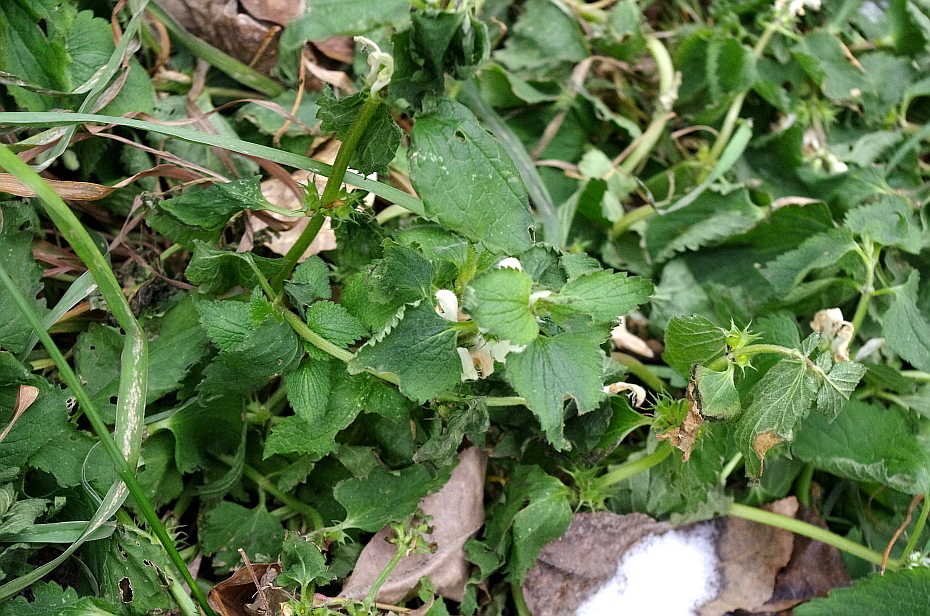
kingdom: Plantae
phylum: Tracheophyta
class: Magnoliopsida
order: Lamiales
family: Lamiaceae
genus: Lamium
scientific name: Lamium album
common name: White dead-nettle
